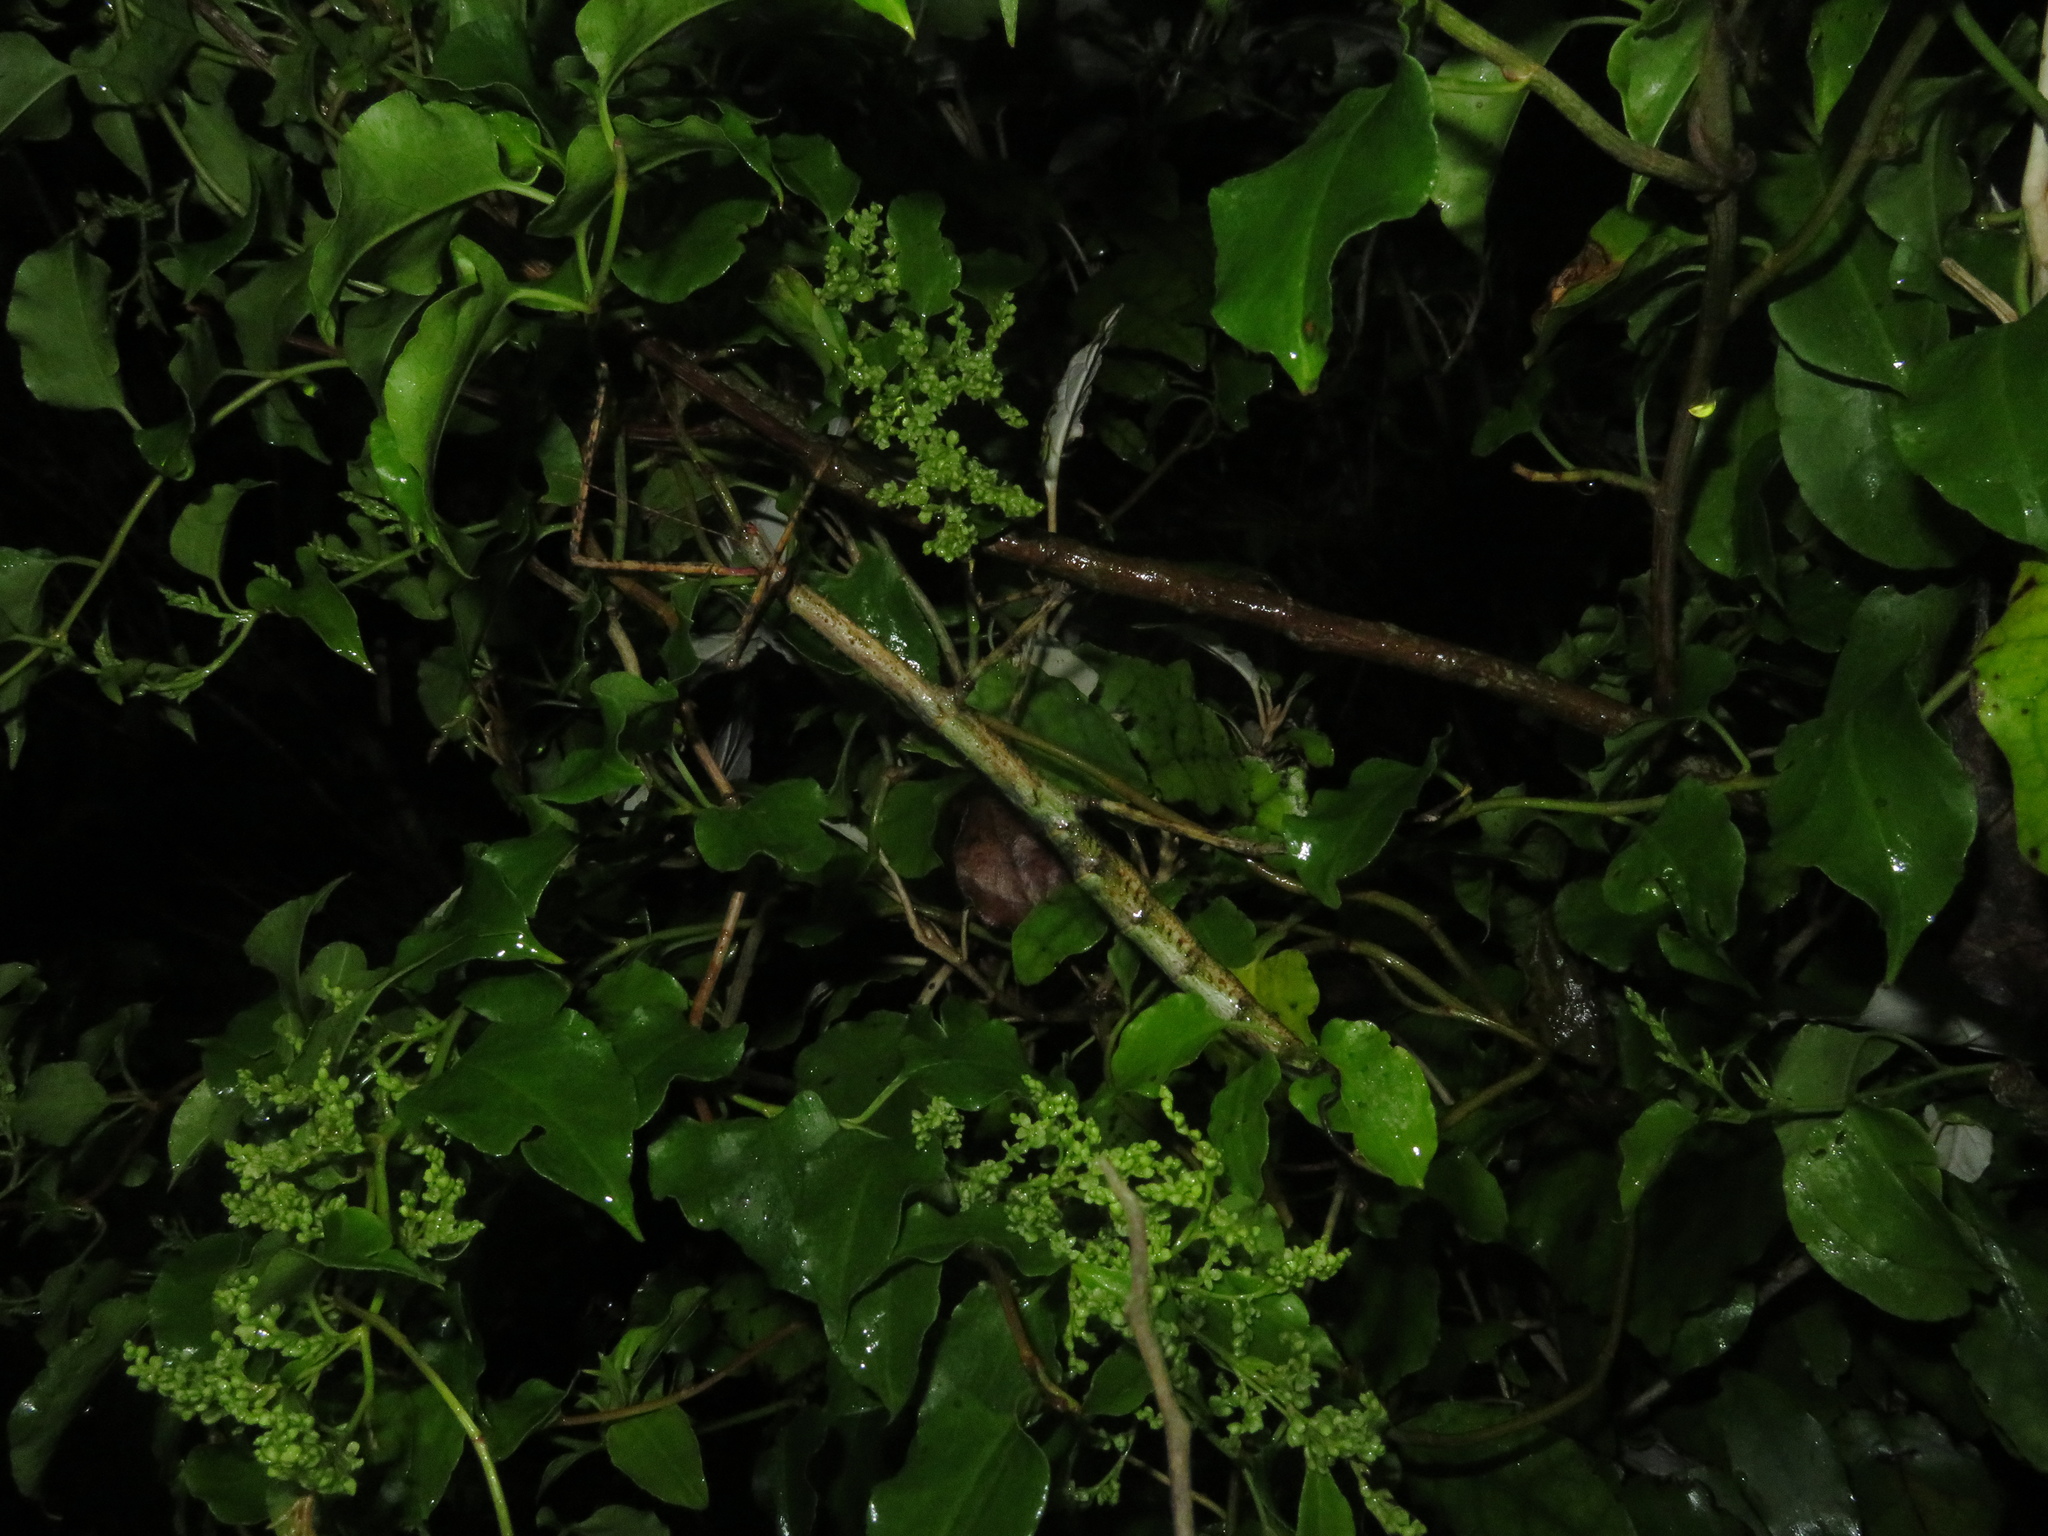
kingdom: Animalia
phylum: Arthropoda
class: Insecta
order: Phasmida
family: Phasmatidae
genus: Argosarchus
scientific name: Argosarchus horridus
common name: Bristly stick insect
